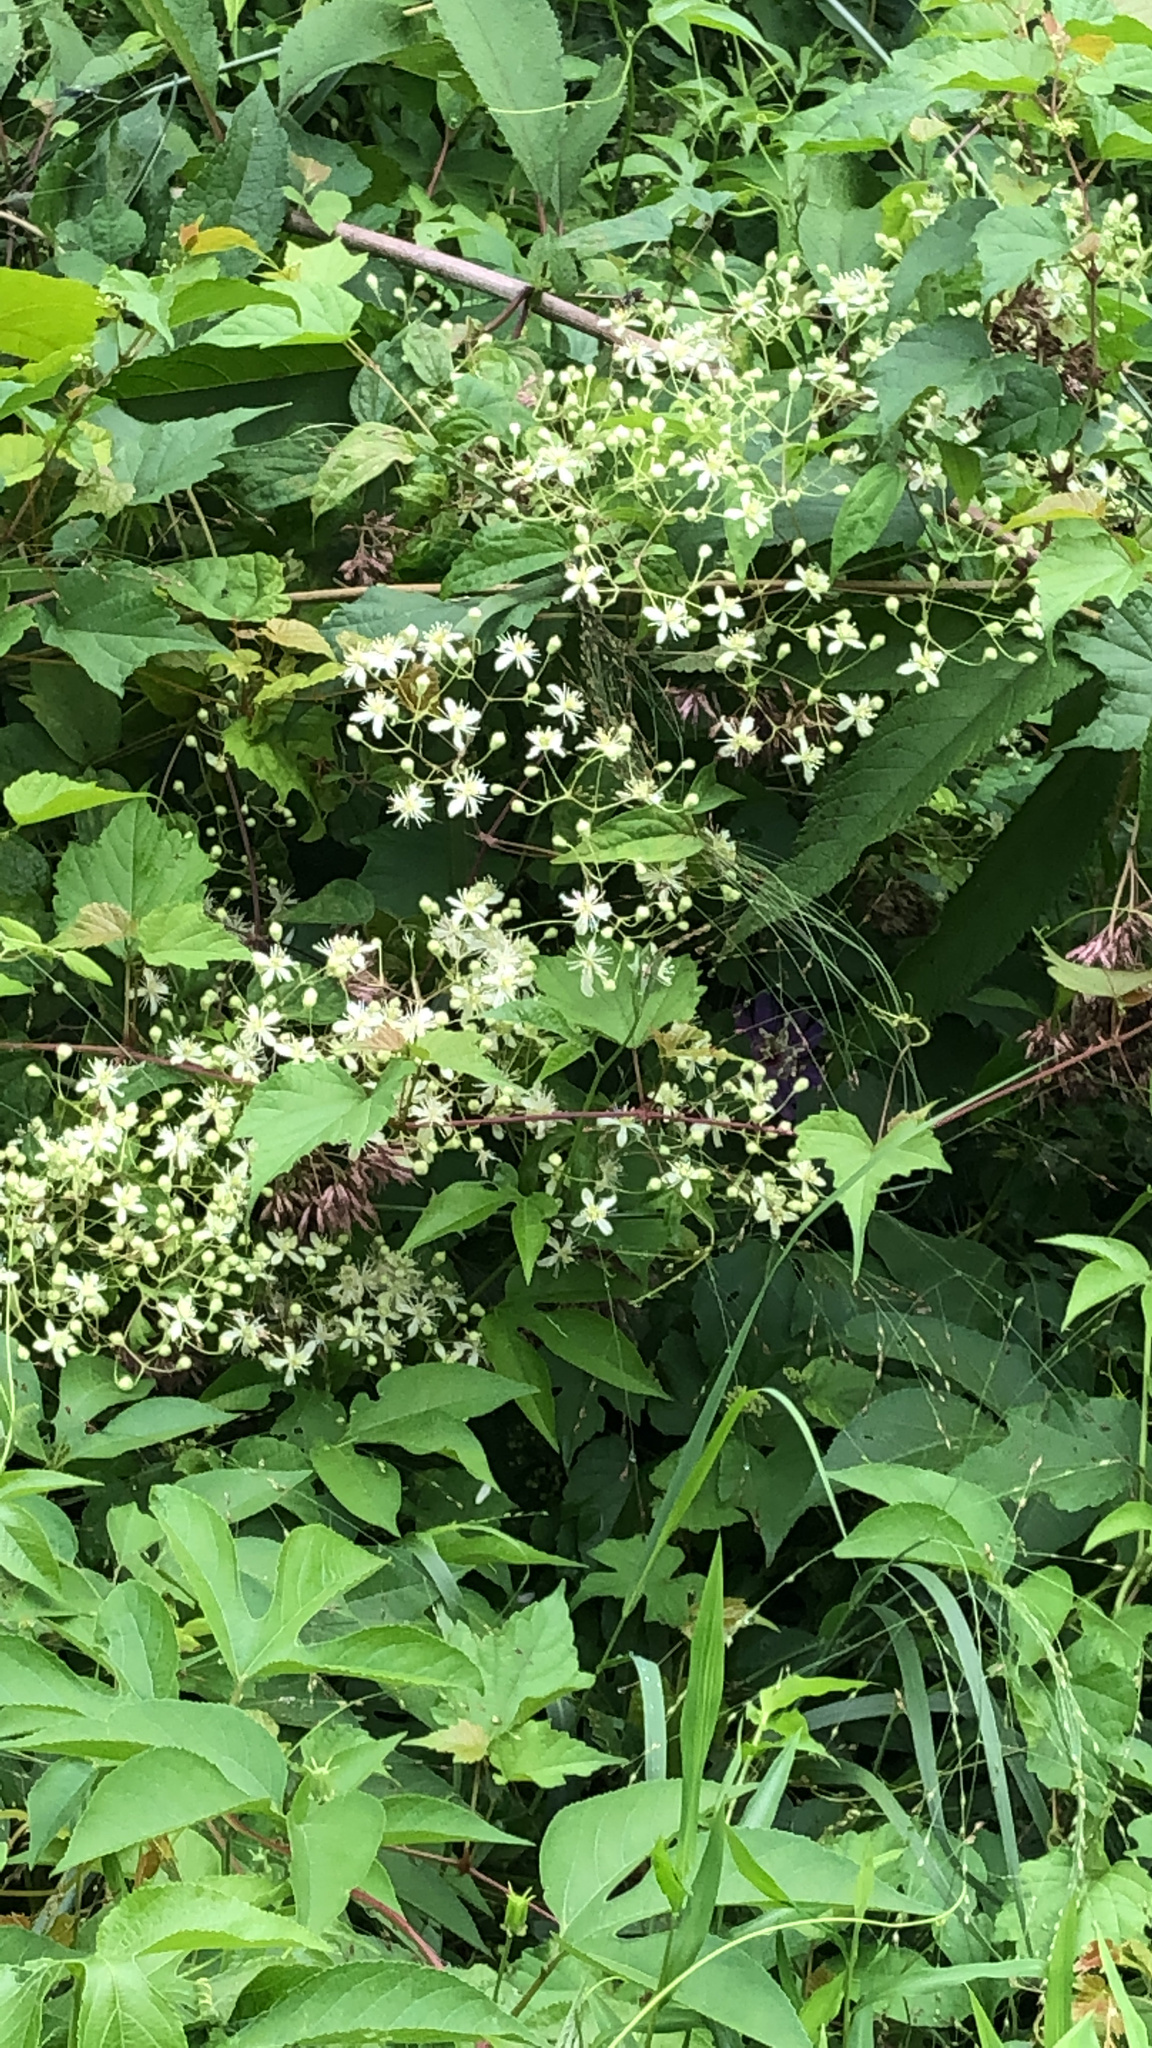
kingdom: Plantae
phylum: Tracheophyta
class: Magnoliopsida
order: Ranunculales
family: Ranunculaceae
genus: Clematis
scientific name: Clematis virginiana
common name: Virgin's-bower
